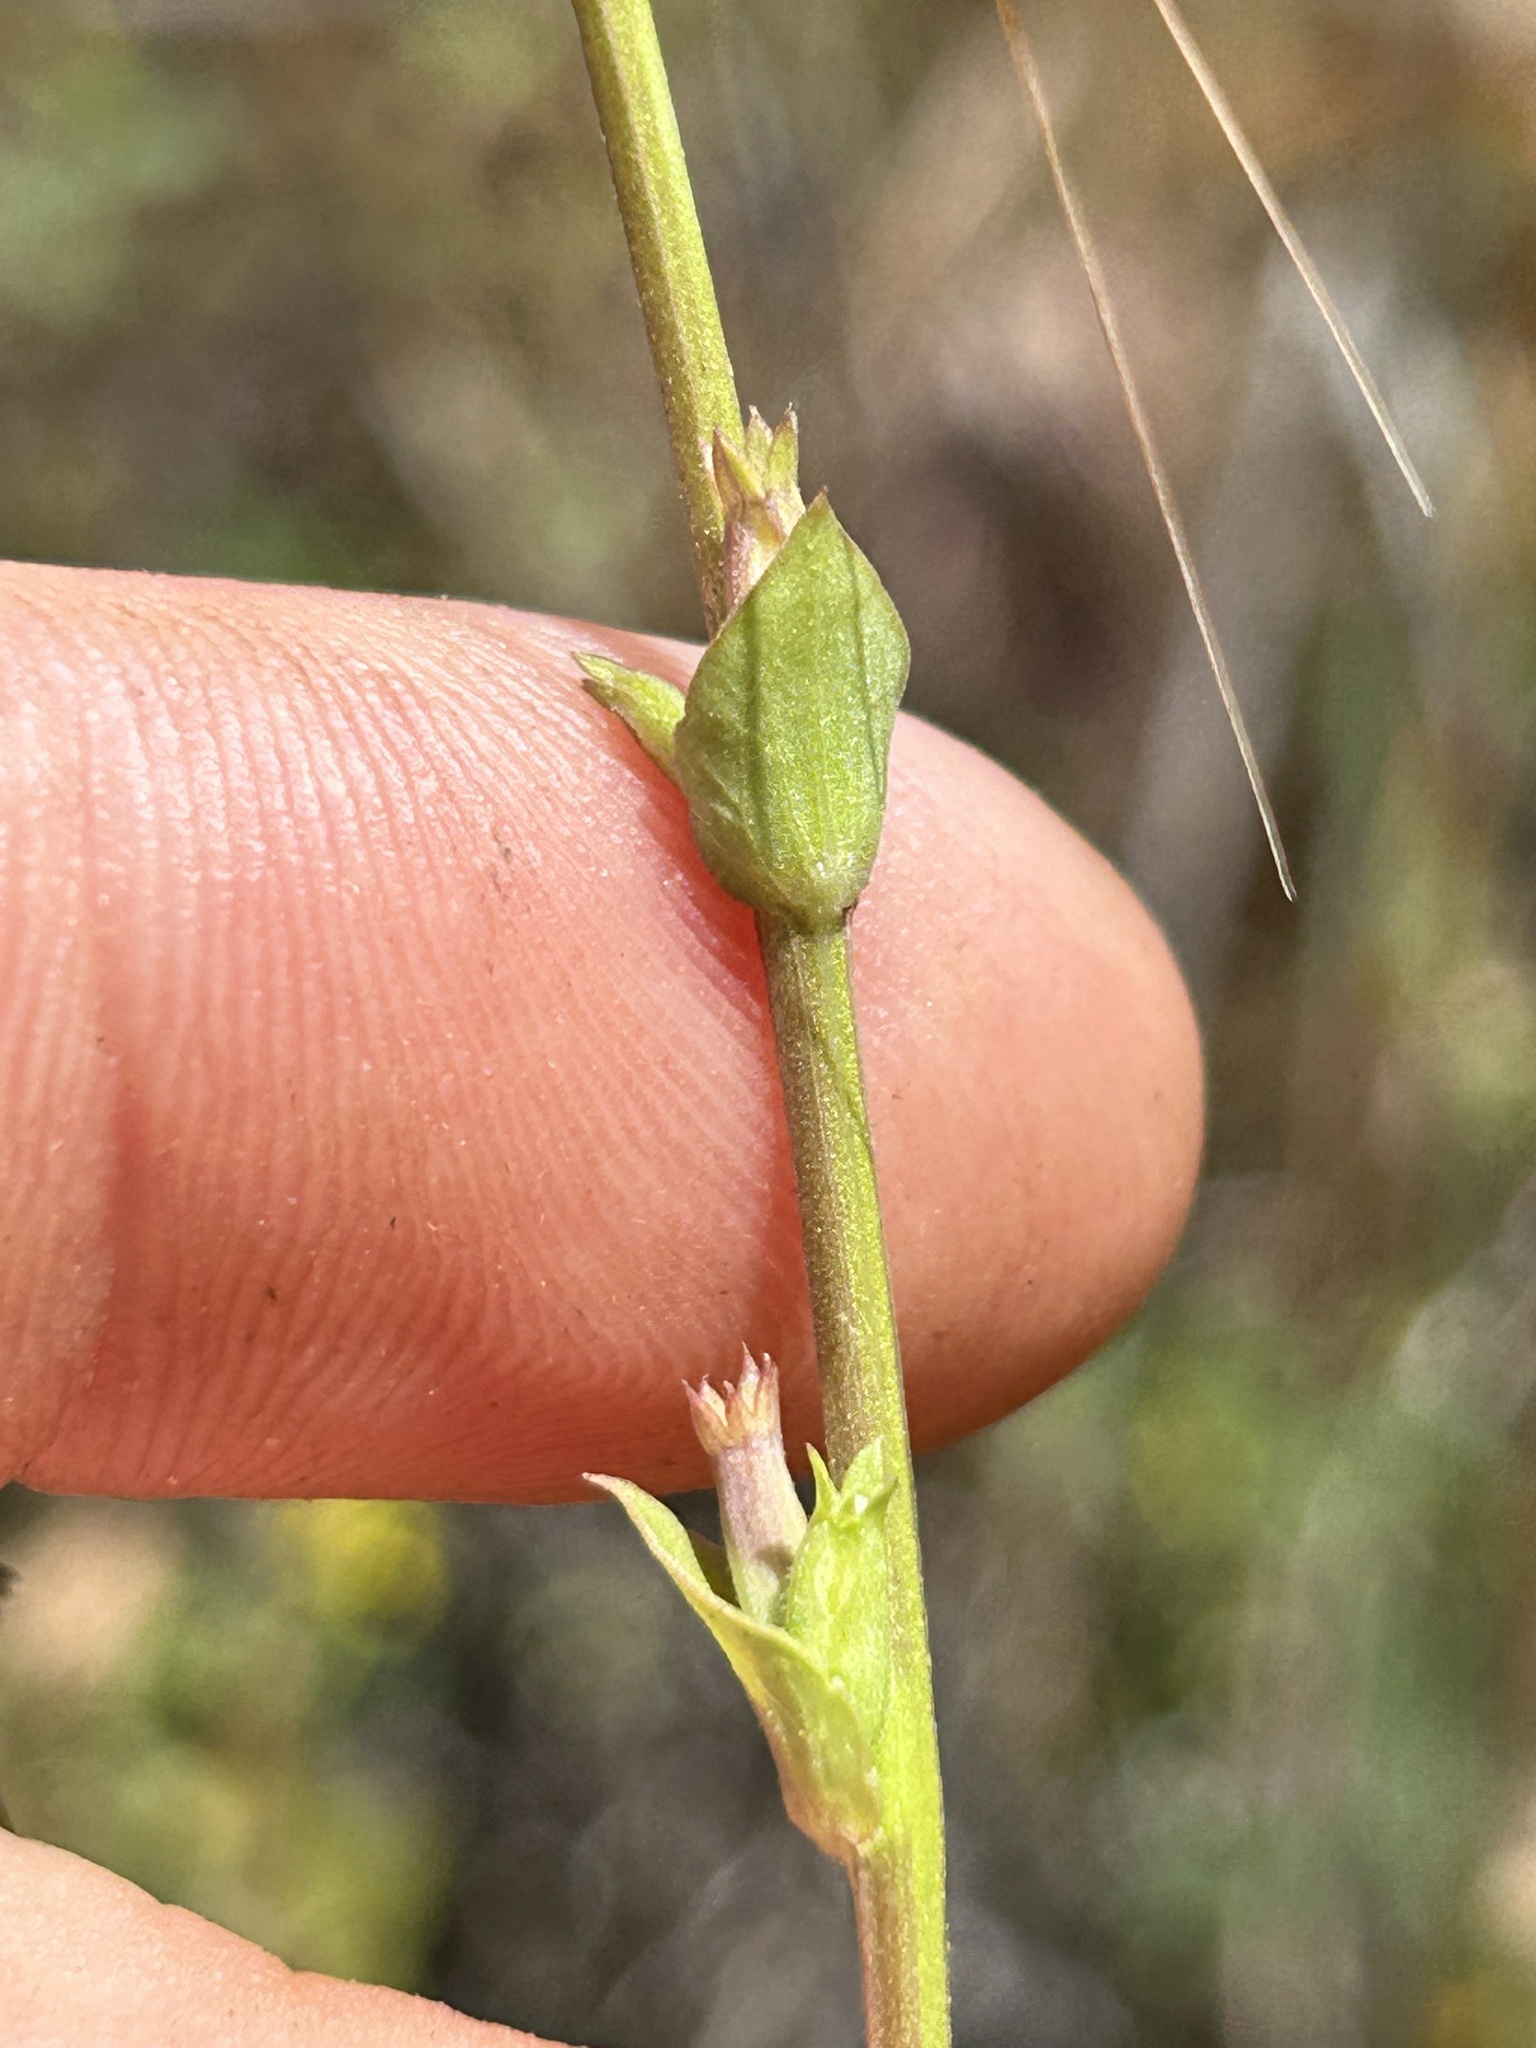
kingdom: Plantae
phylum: Tracheophyta
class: Magnoliopsida
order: Asterales
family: Campanulaceae
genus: Triodanis
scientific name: Triodanis biflora
